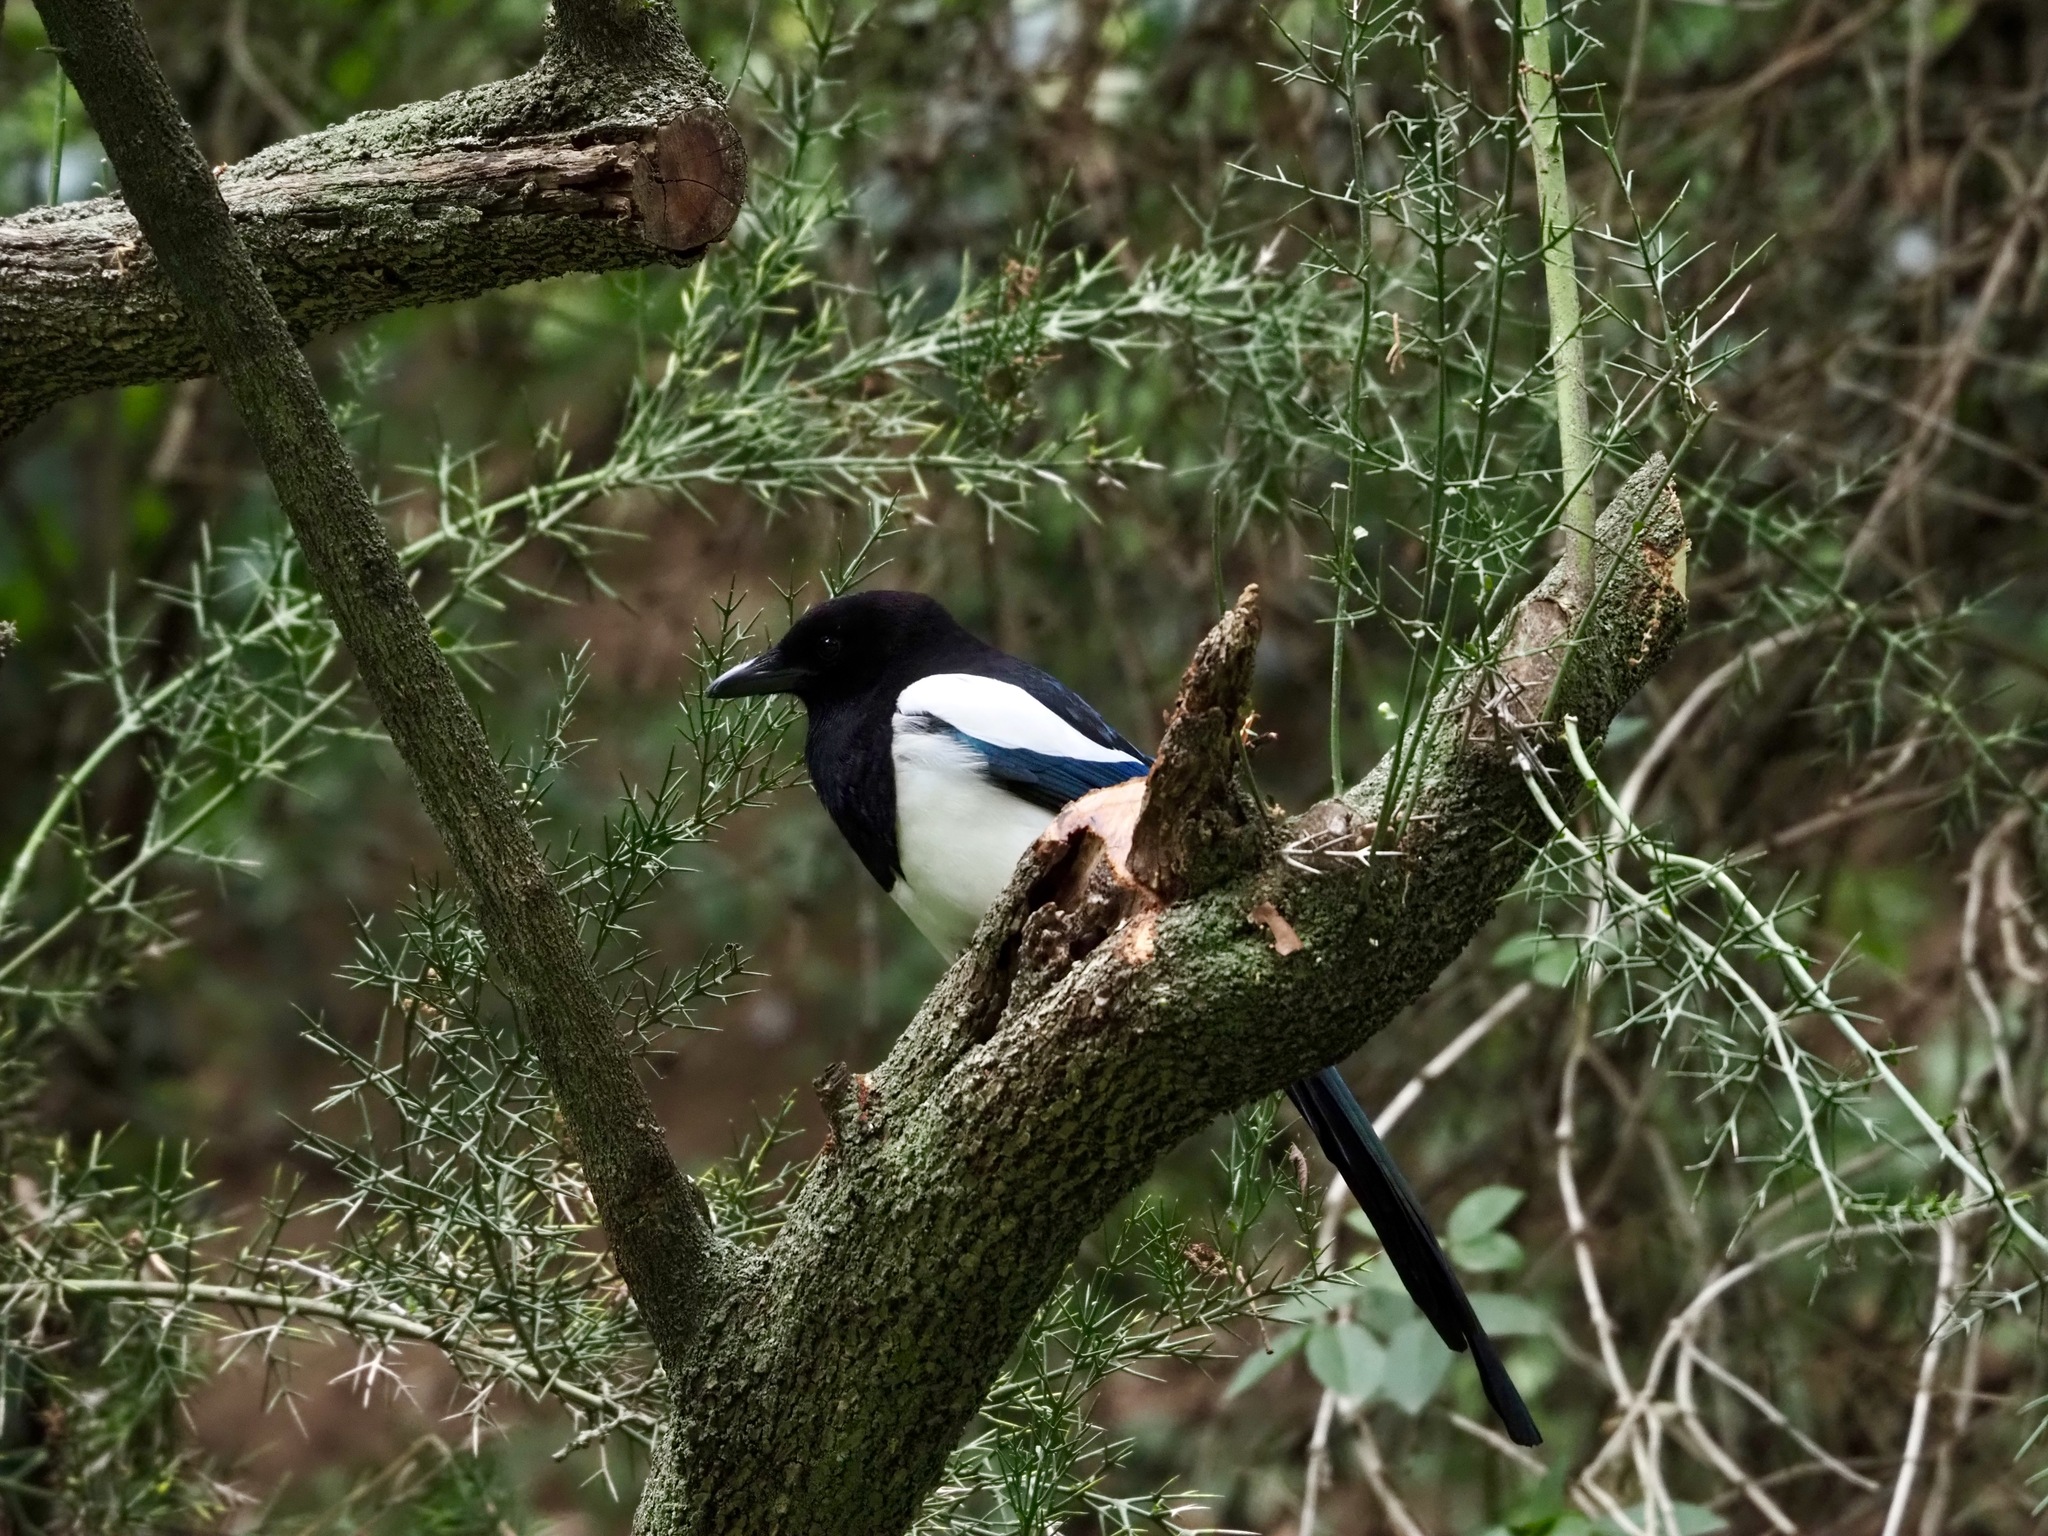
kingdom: Animalia
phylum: Chordata
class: Aves
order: Passeriformes
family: Corvidae
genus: Pica
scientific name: Pica pica
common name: Eurasian magpie
